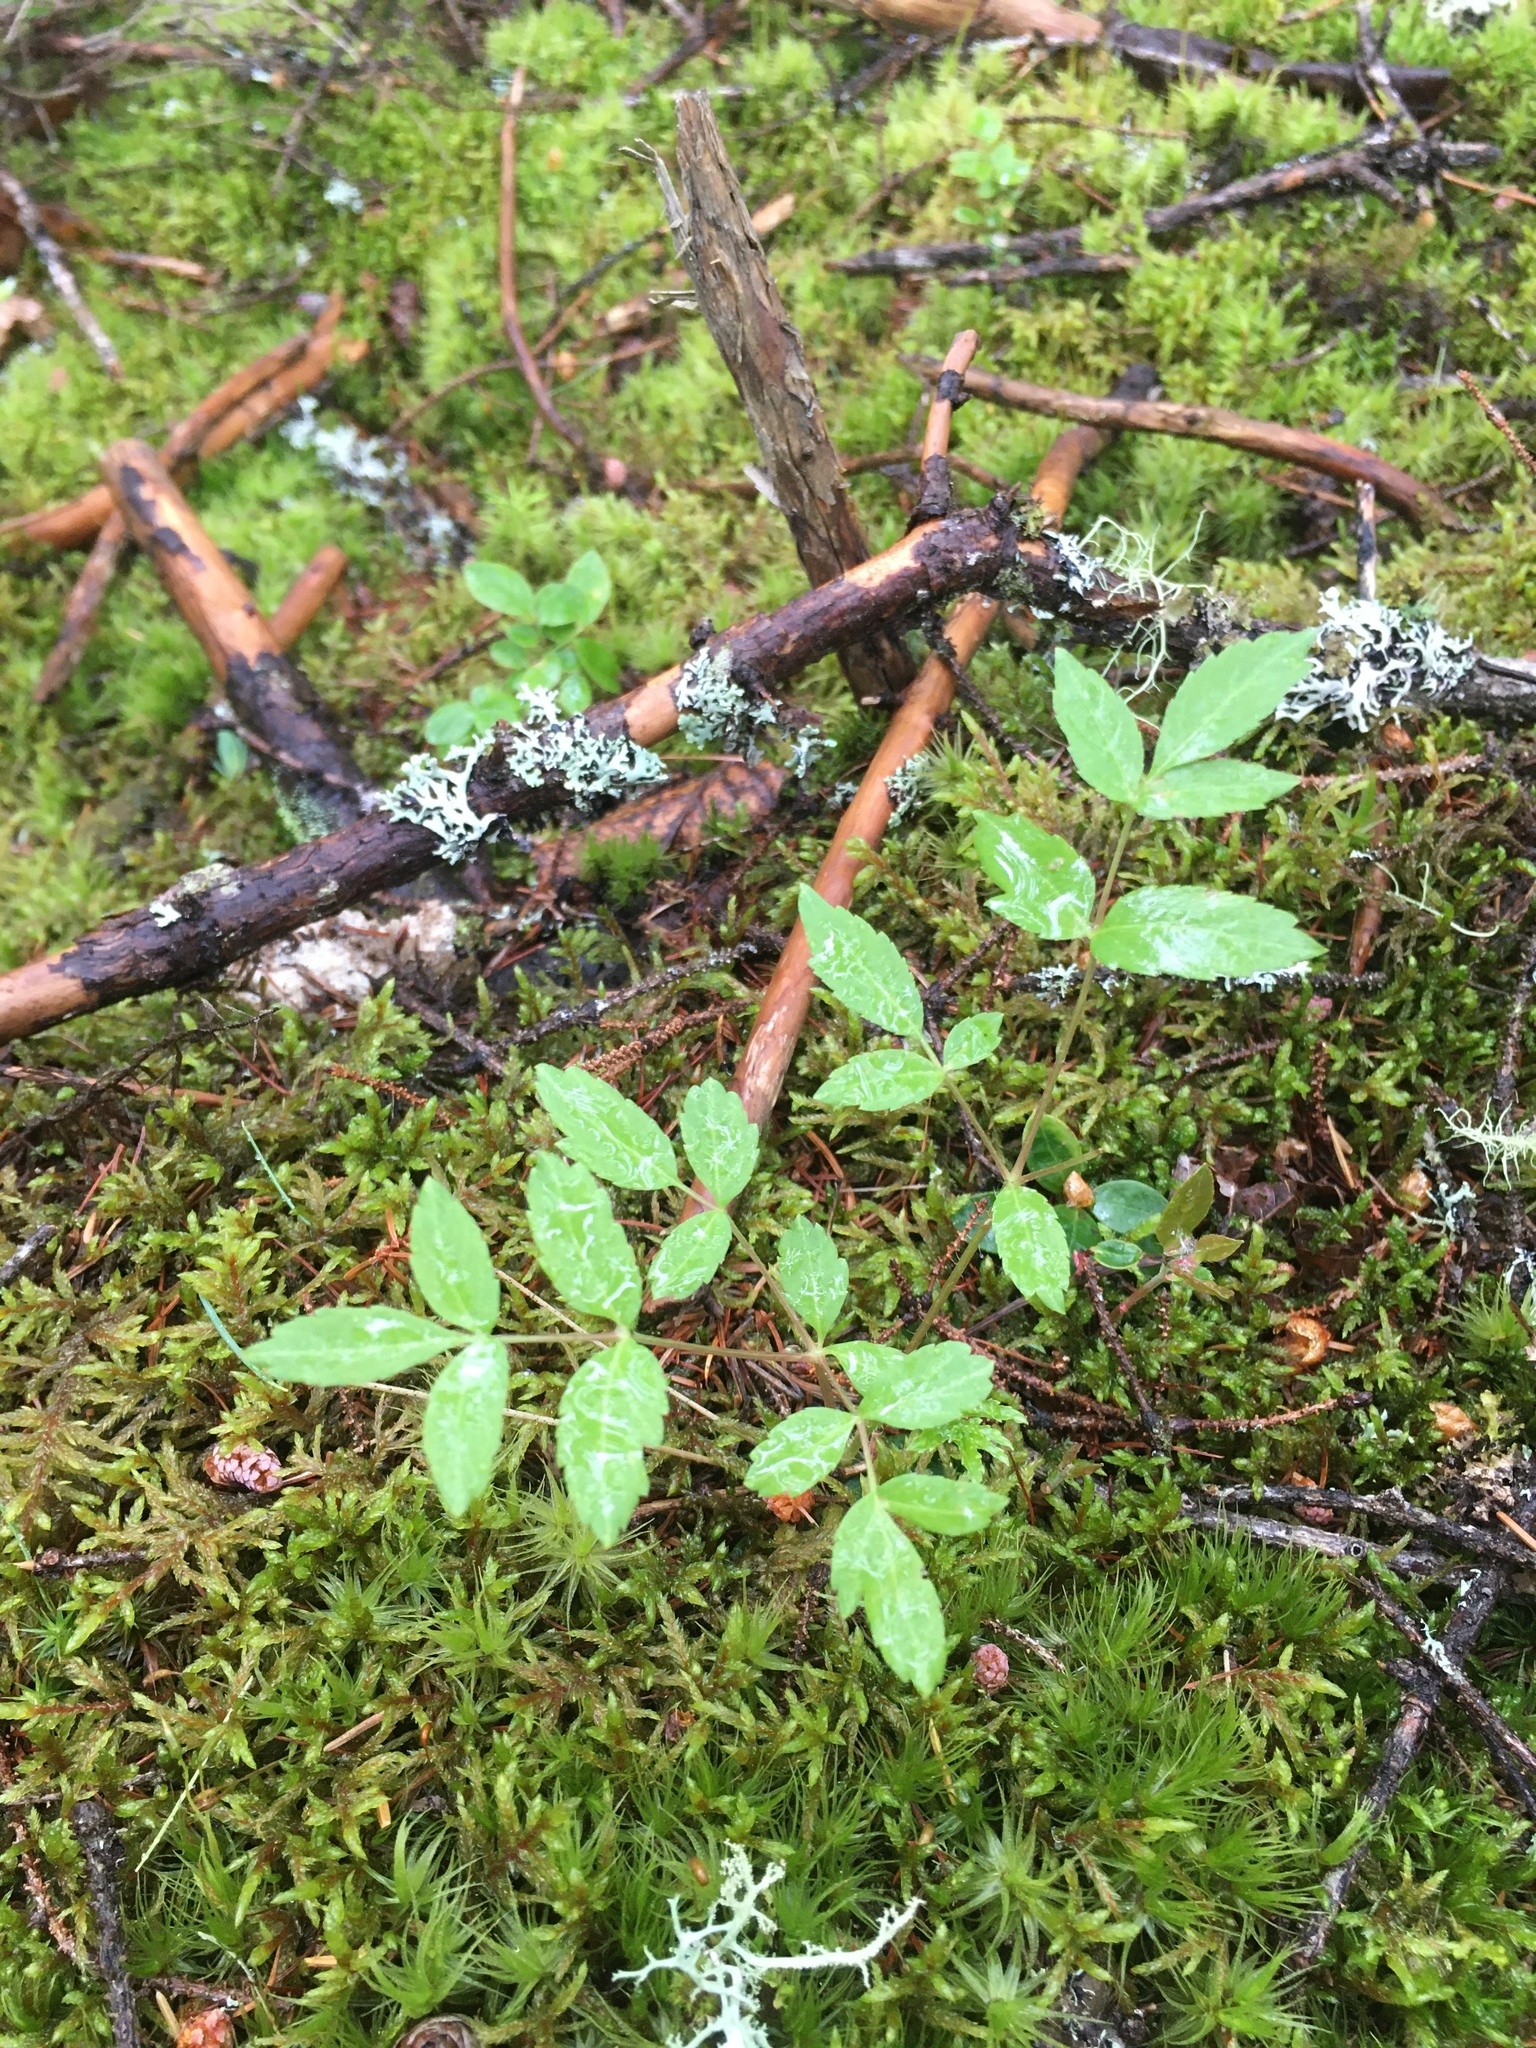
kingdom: Plantae
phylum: Tracheophyta
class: Magnoliopsida
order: Apiales
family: Araliaceae
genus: Aralia
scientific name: Aralia hispida
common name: Bristly sarsaparilla
